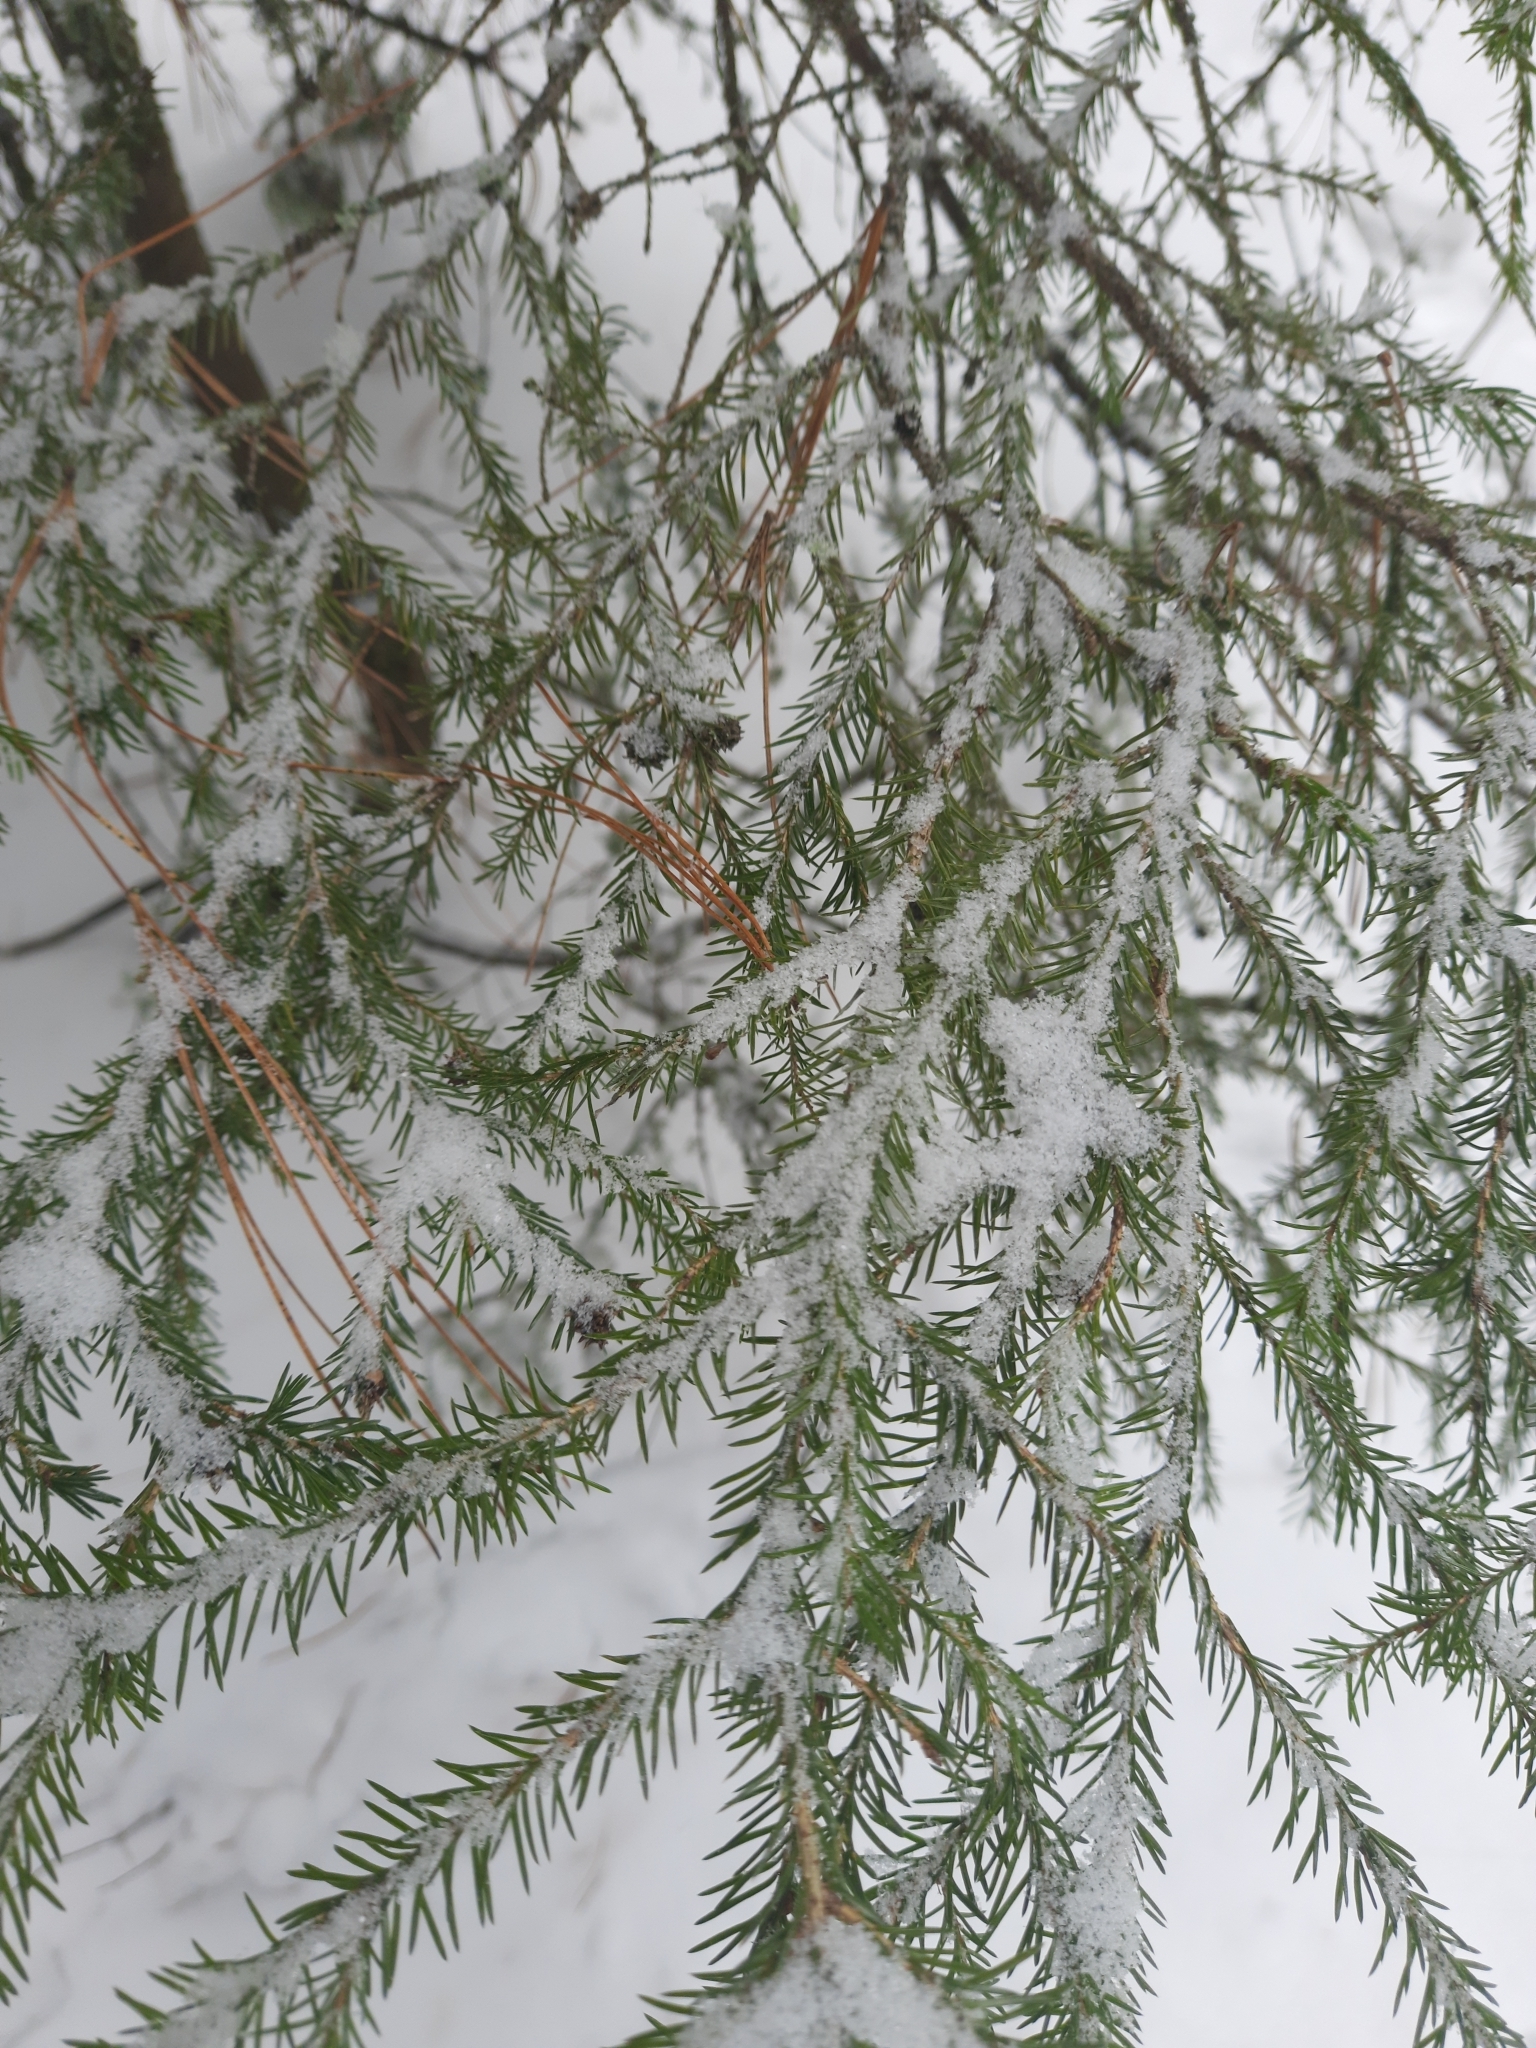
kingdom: Plantae
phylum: Tracheophyta
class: Pinopsida
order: Pinales
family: Pinaceae
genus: Picea
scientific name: Picea obovata
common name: Siberian spruce
